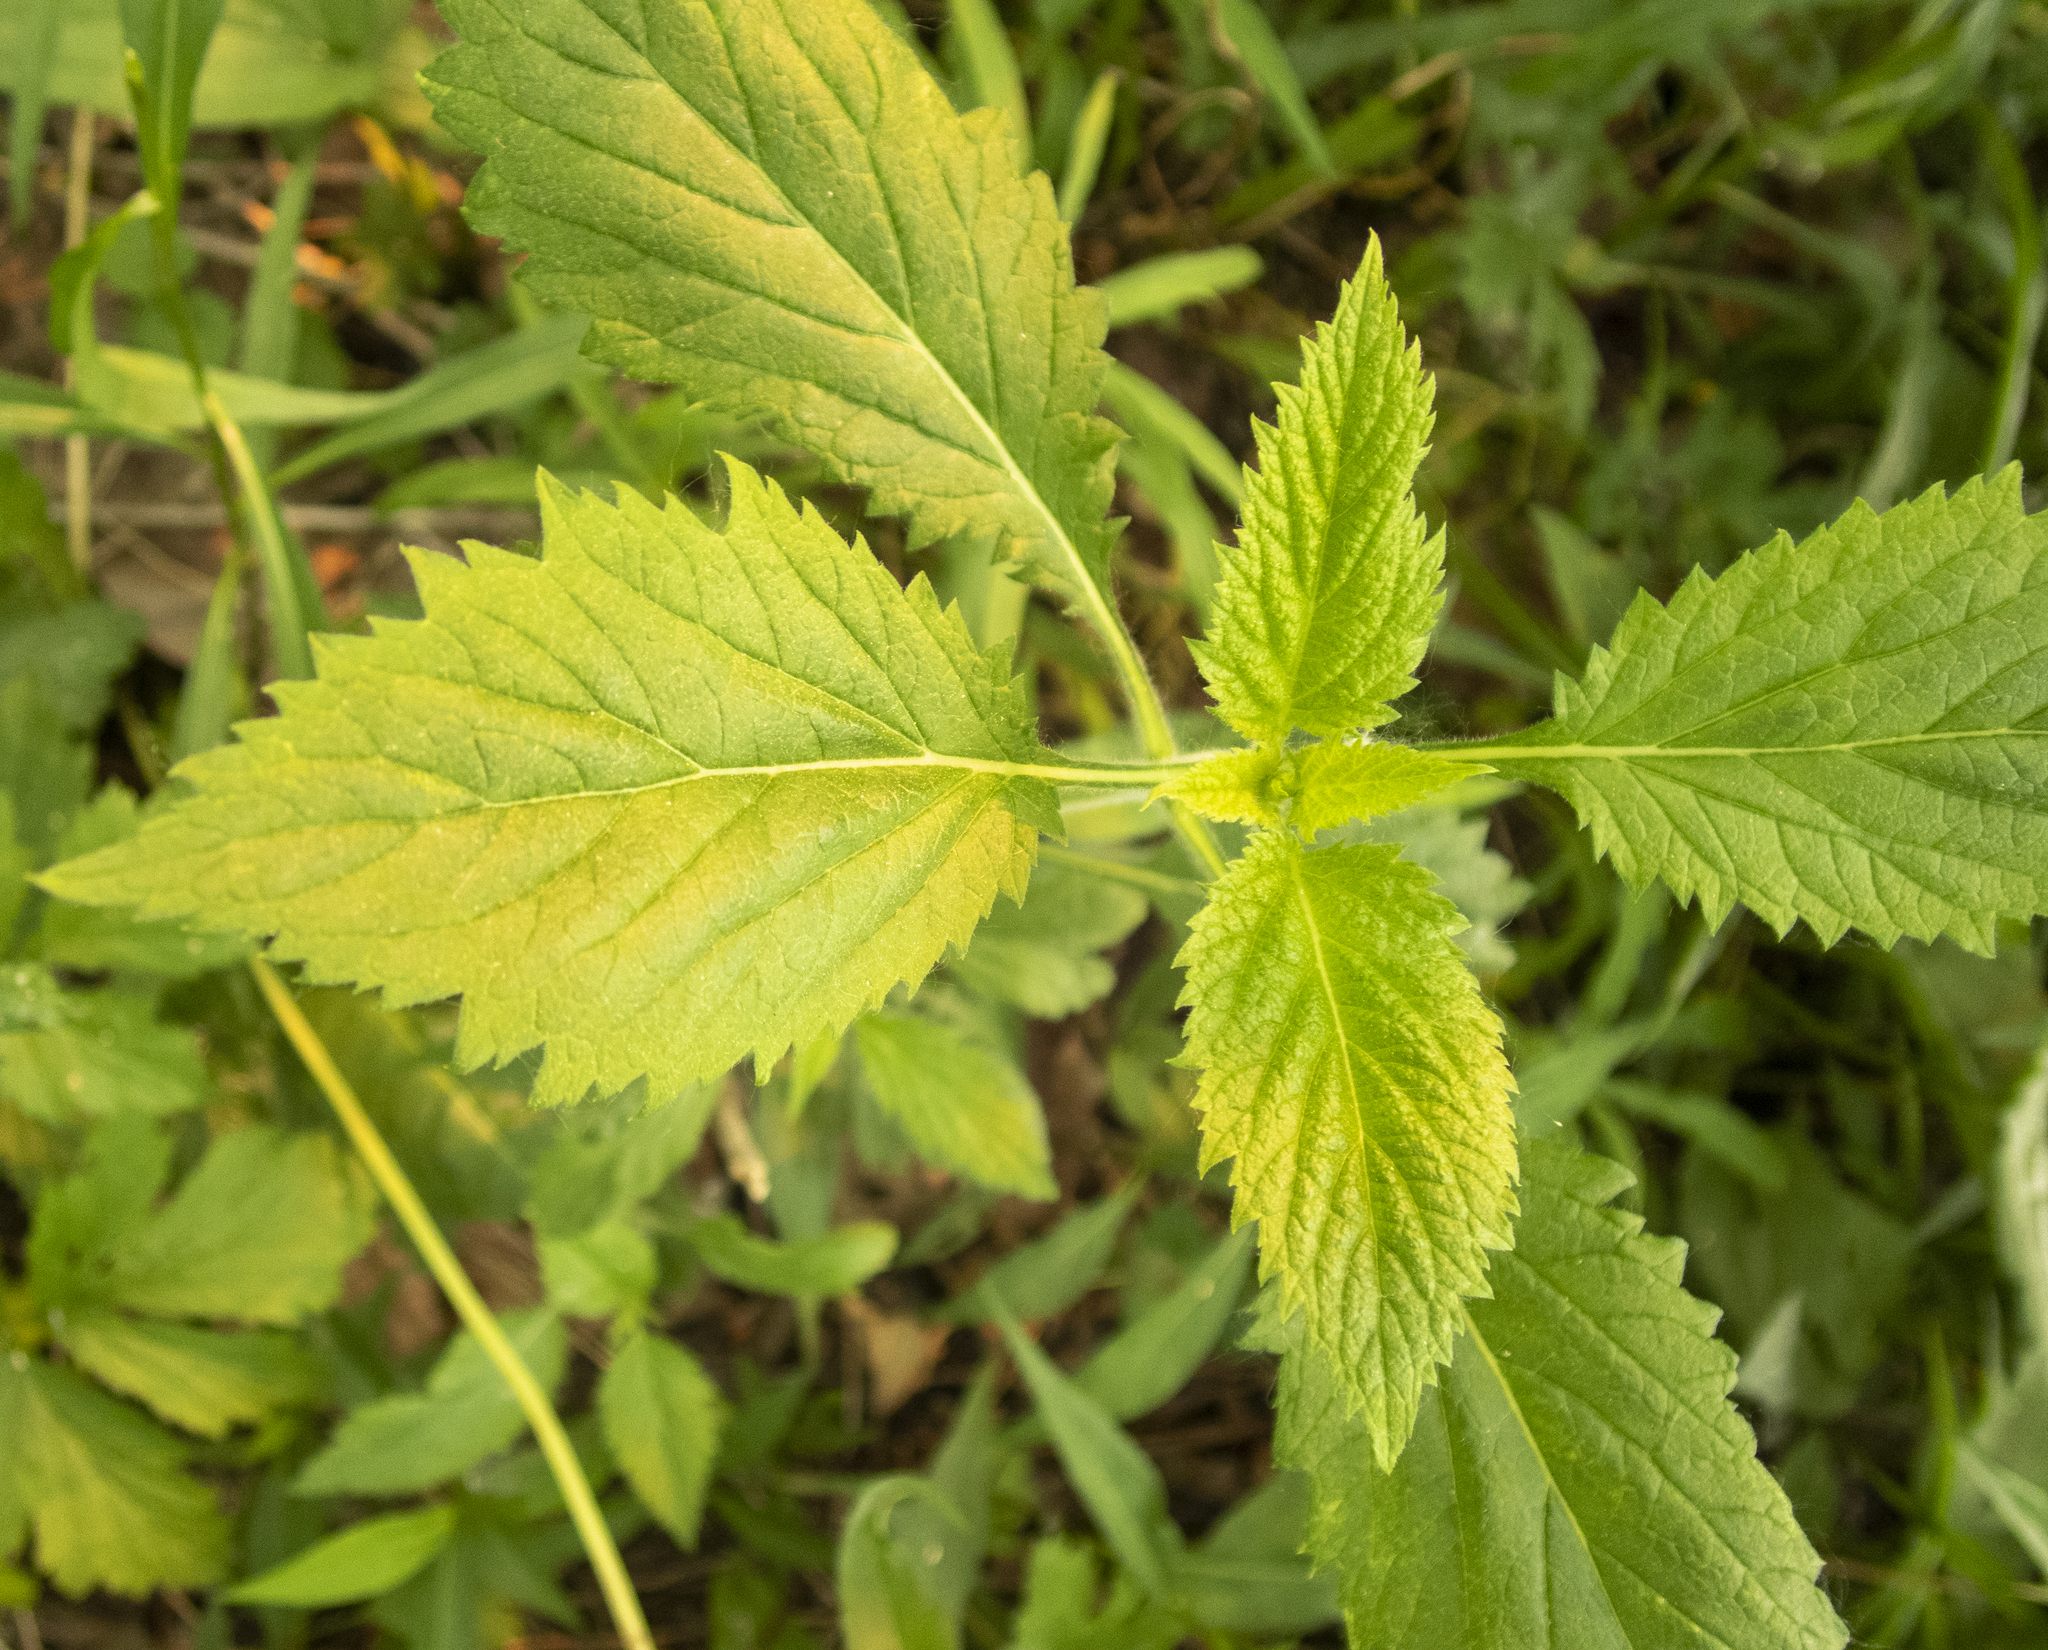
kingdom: Plantae
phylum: Tracheophyta
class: Magnoliopsida
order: Lamiales
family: Verbenaceae
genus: Verbena
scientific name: Verbena urticifolia
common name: Nettle-leaved vervain
